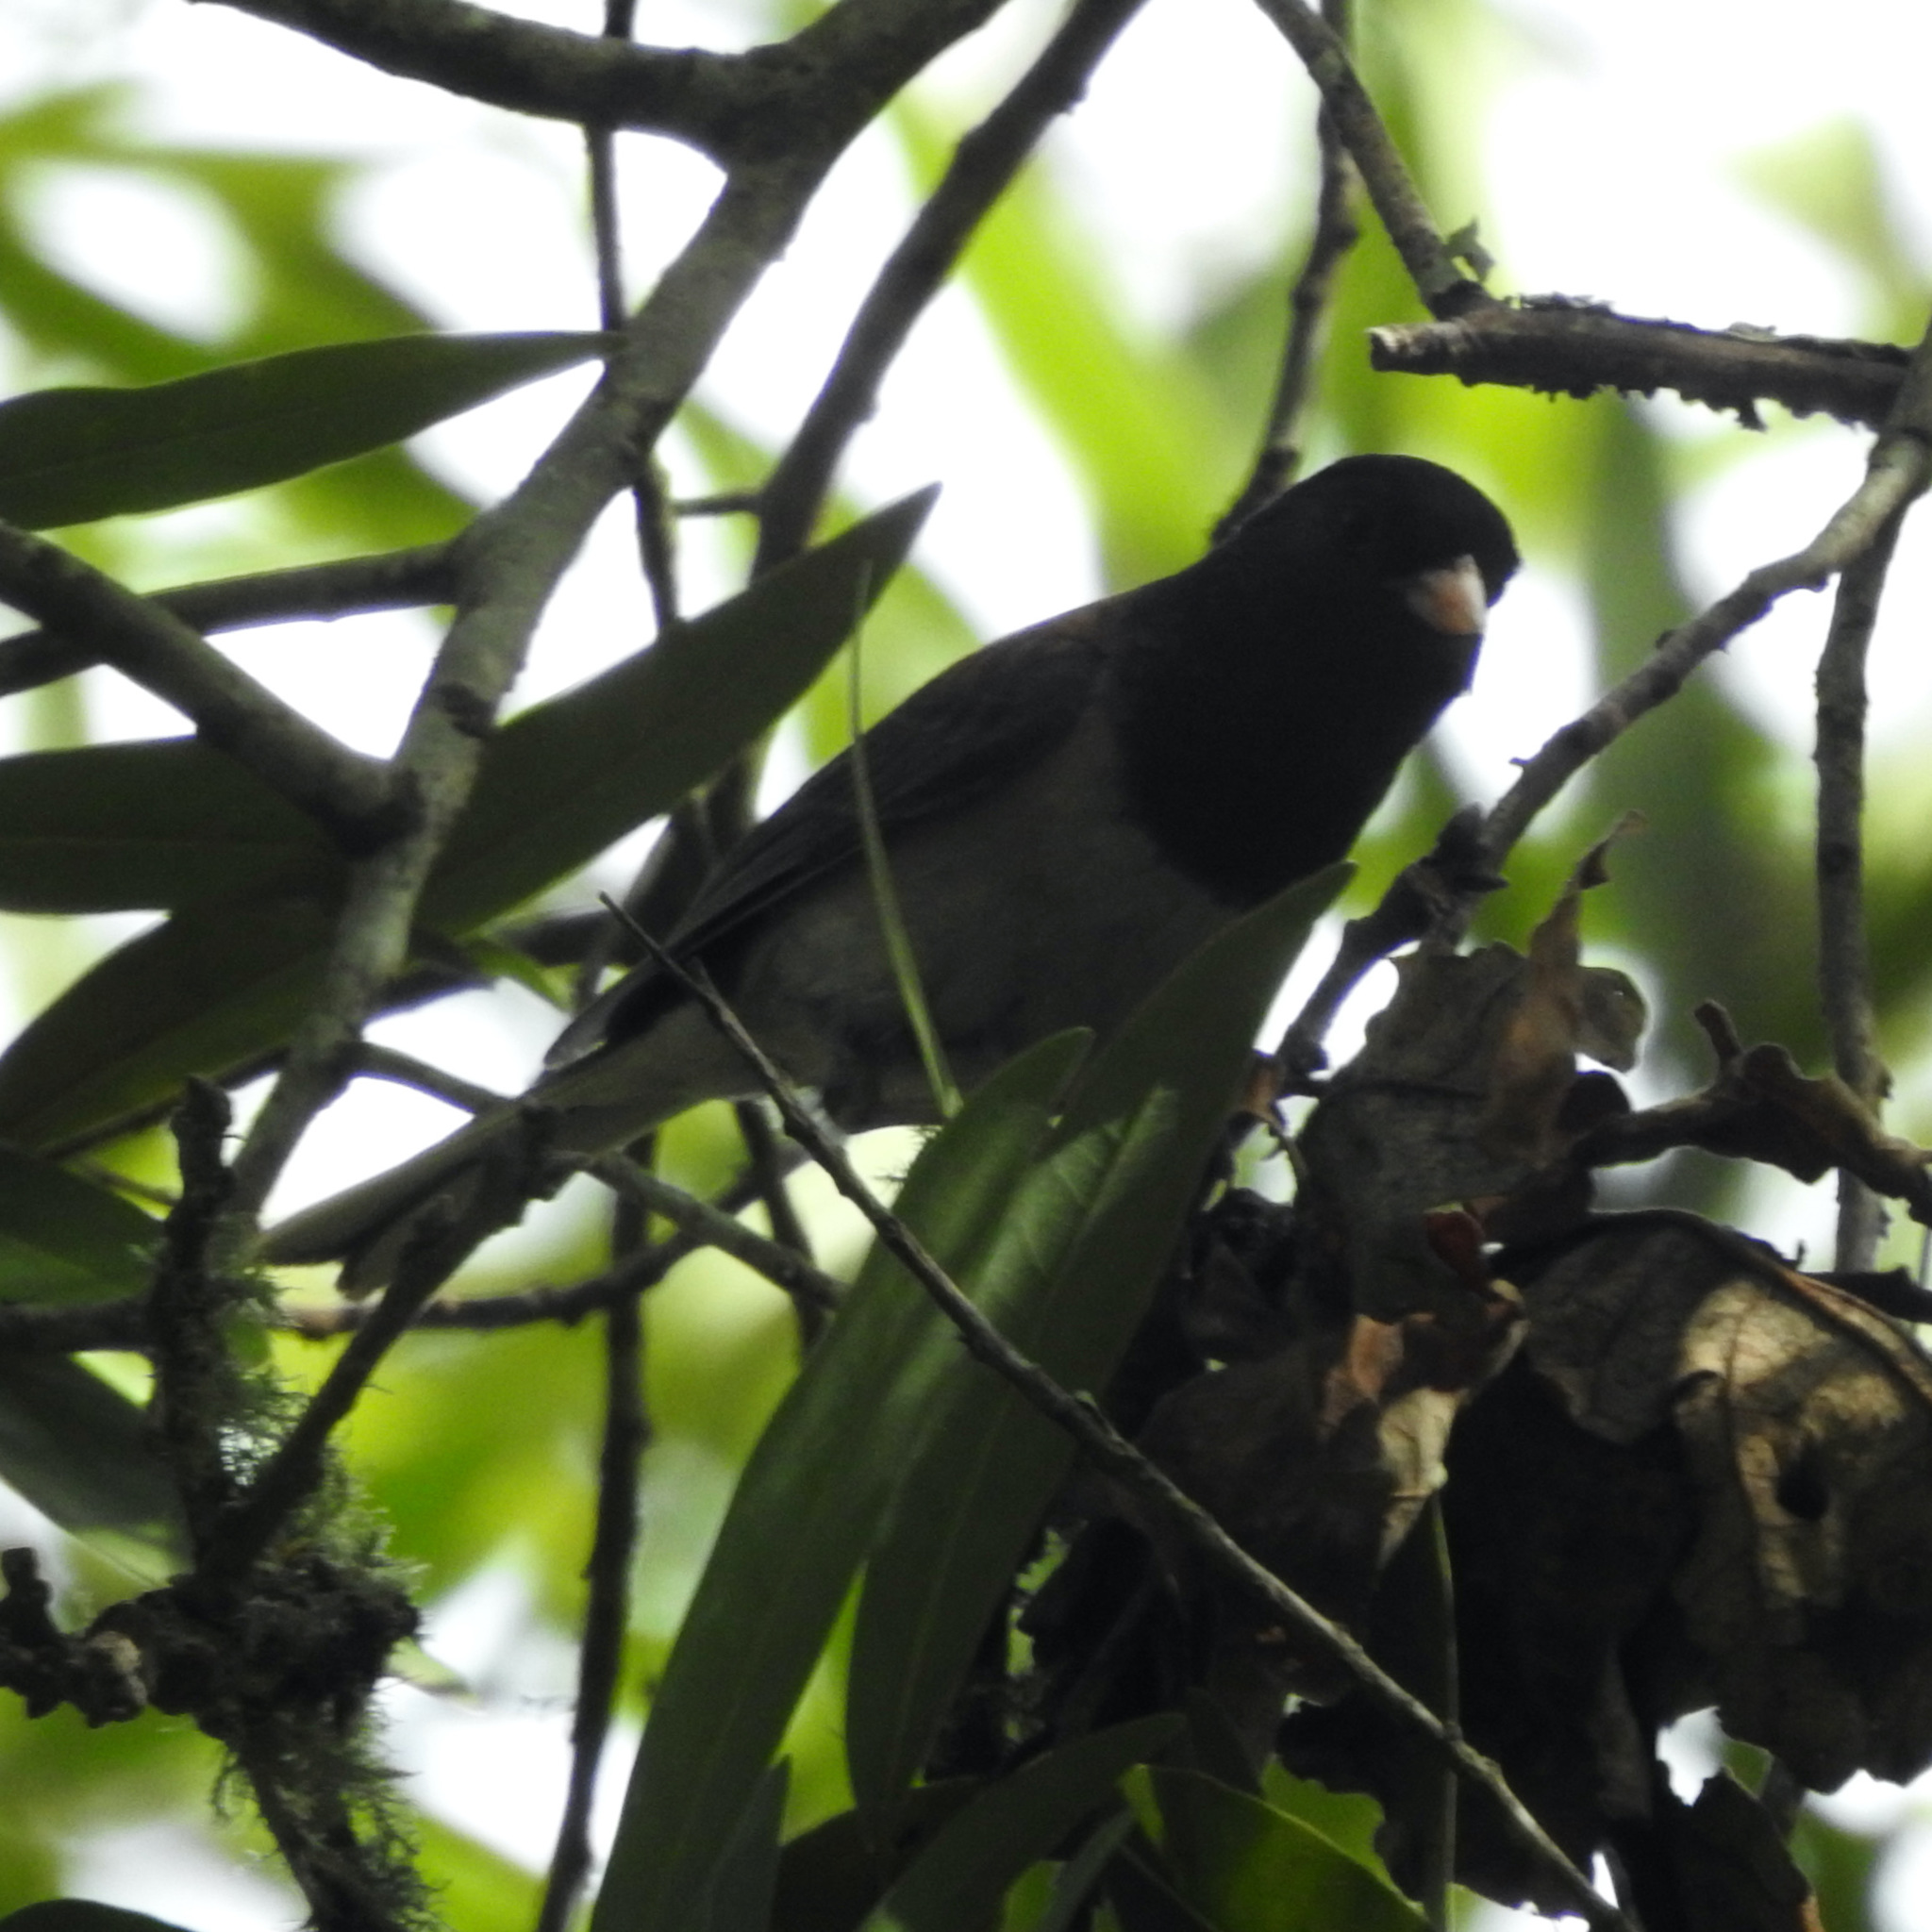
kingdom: Animalia
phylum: Chordata
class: Aves
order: Passeriformes
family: Passerellidae
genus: Junco
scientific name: Junco hyemalis
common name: Dark-eyed junco
